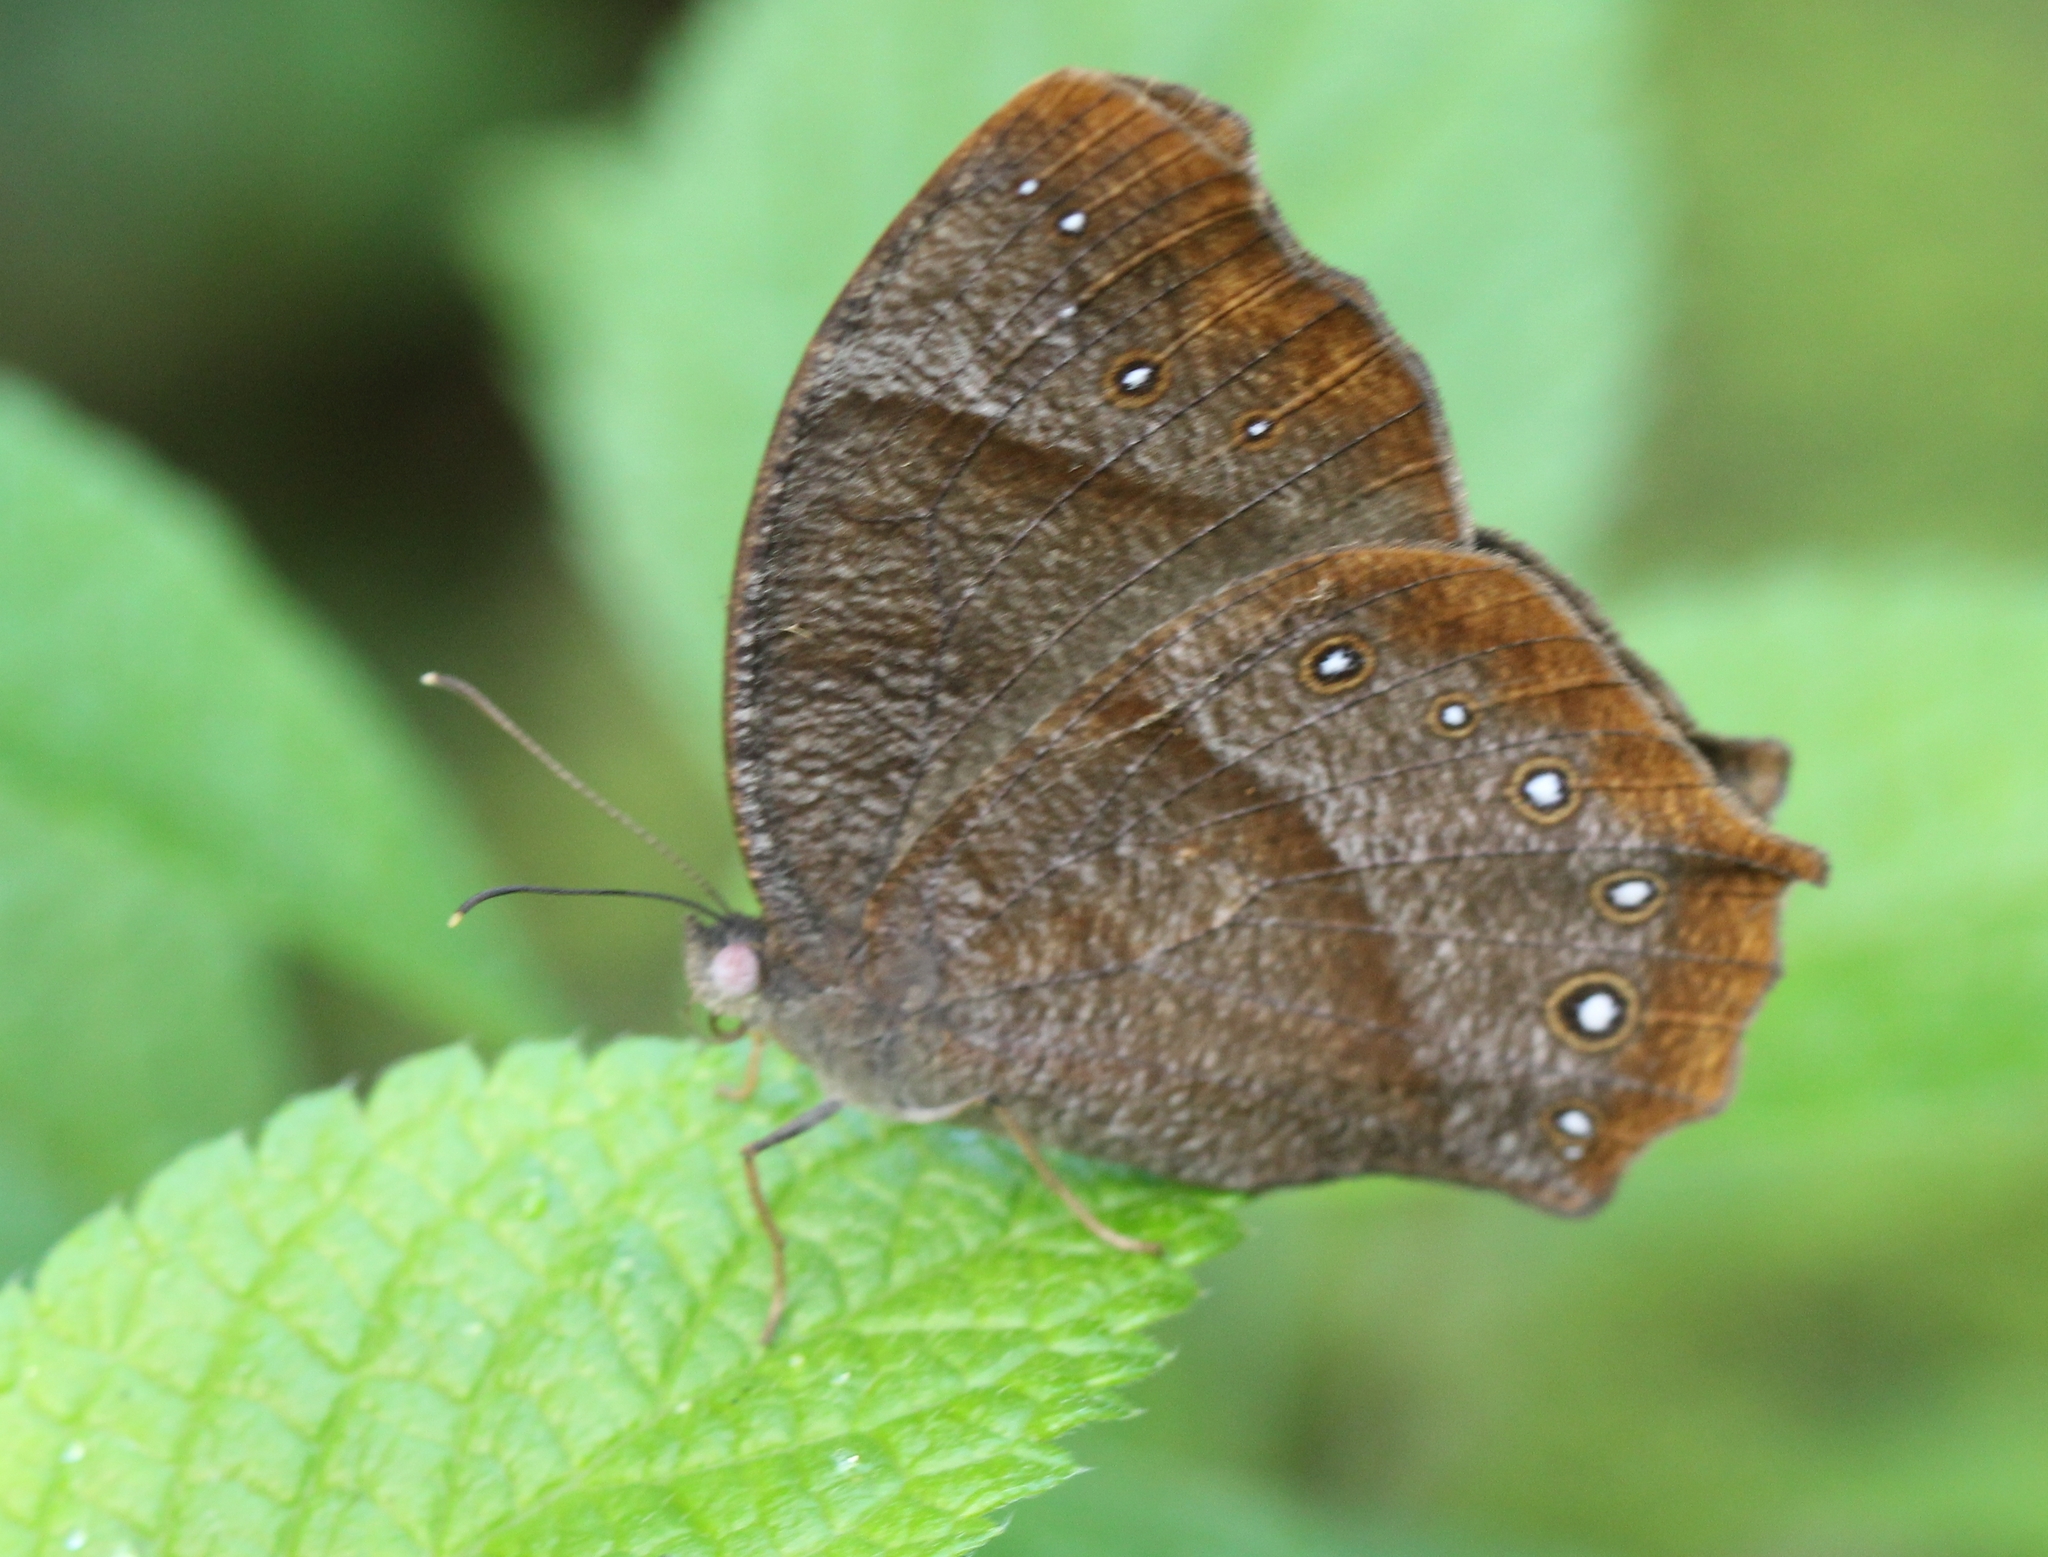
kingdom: Animalia
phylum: Arthropoda
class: Insecta
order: Lepidoptera
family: Nymphalidae
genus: Melanitis
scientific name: Melanitis phedima
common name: Dark evening brown
